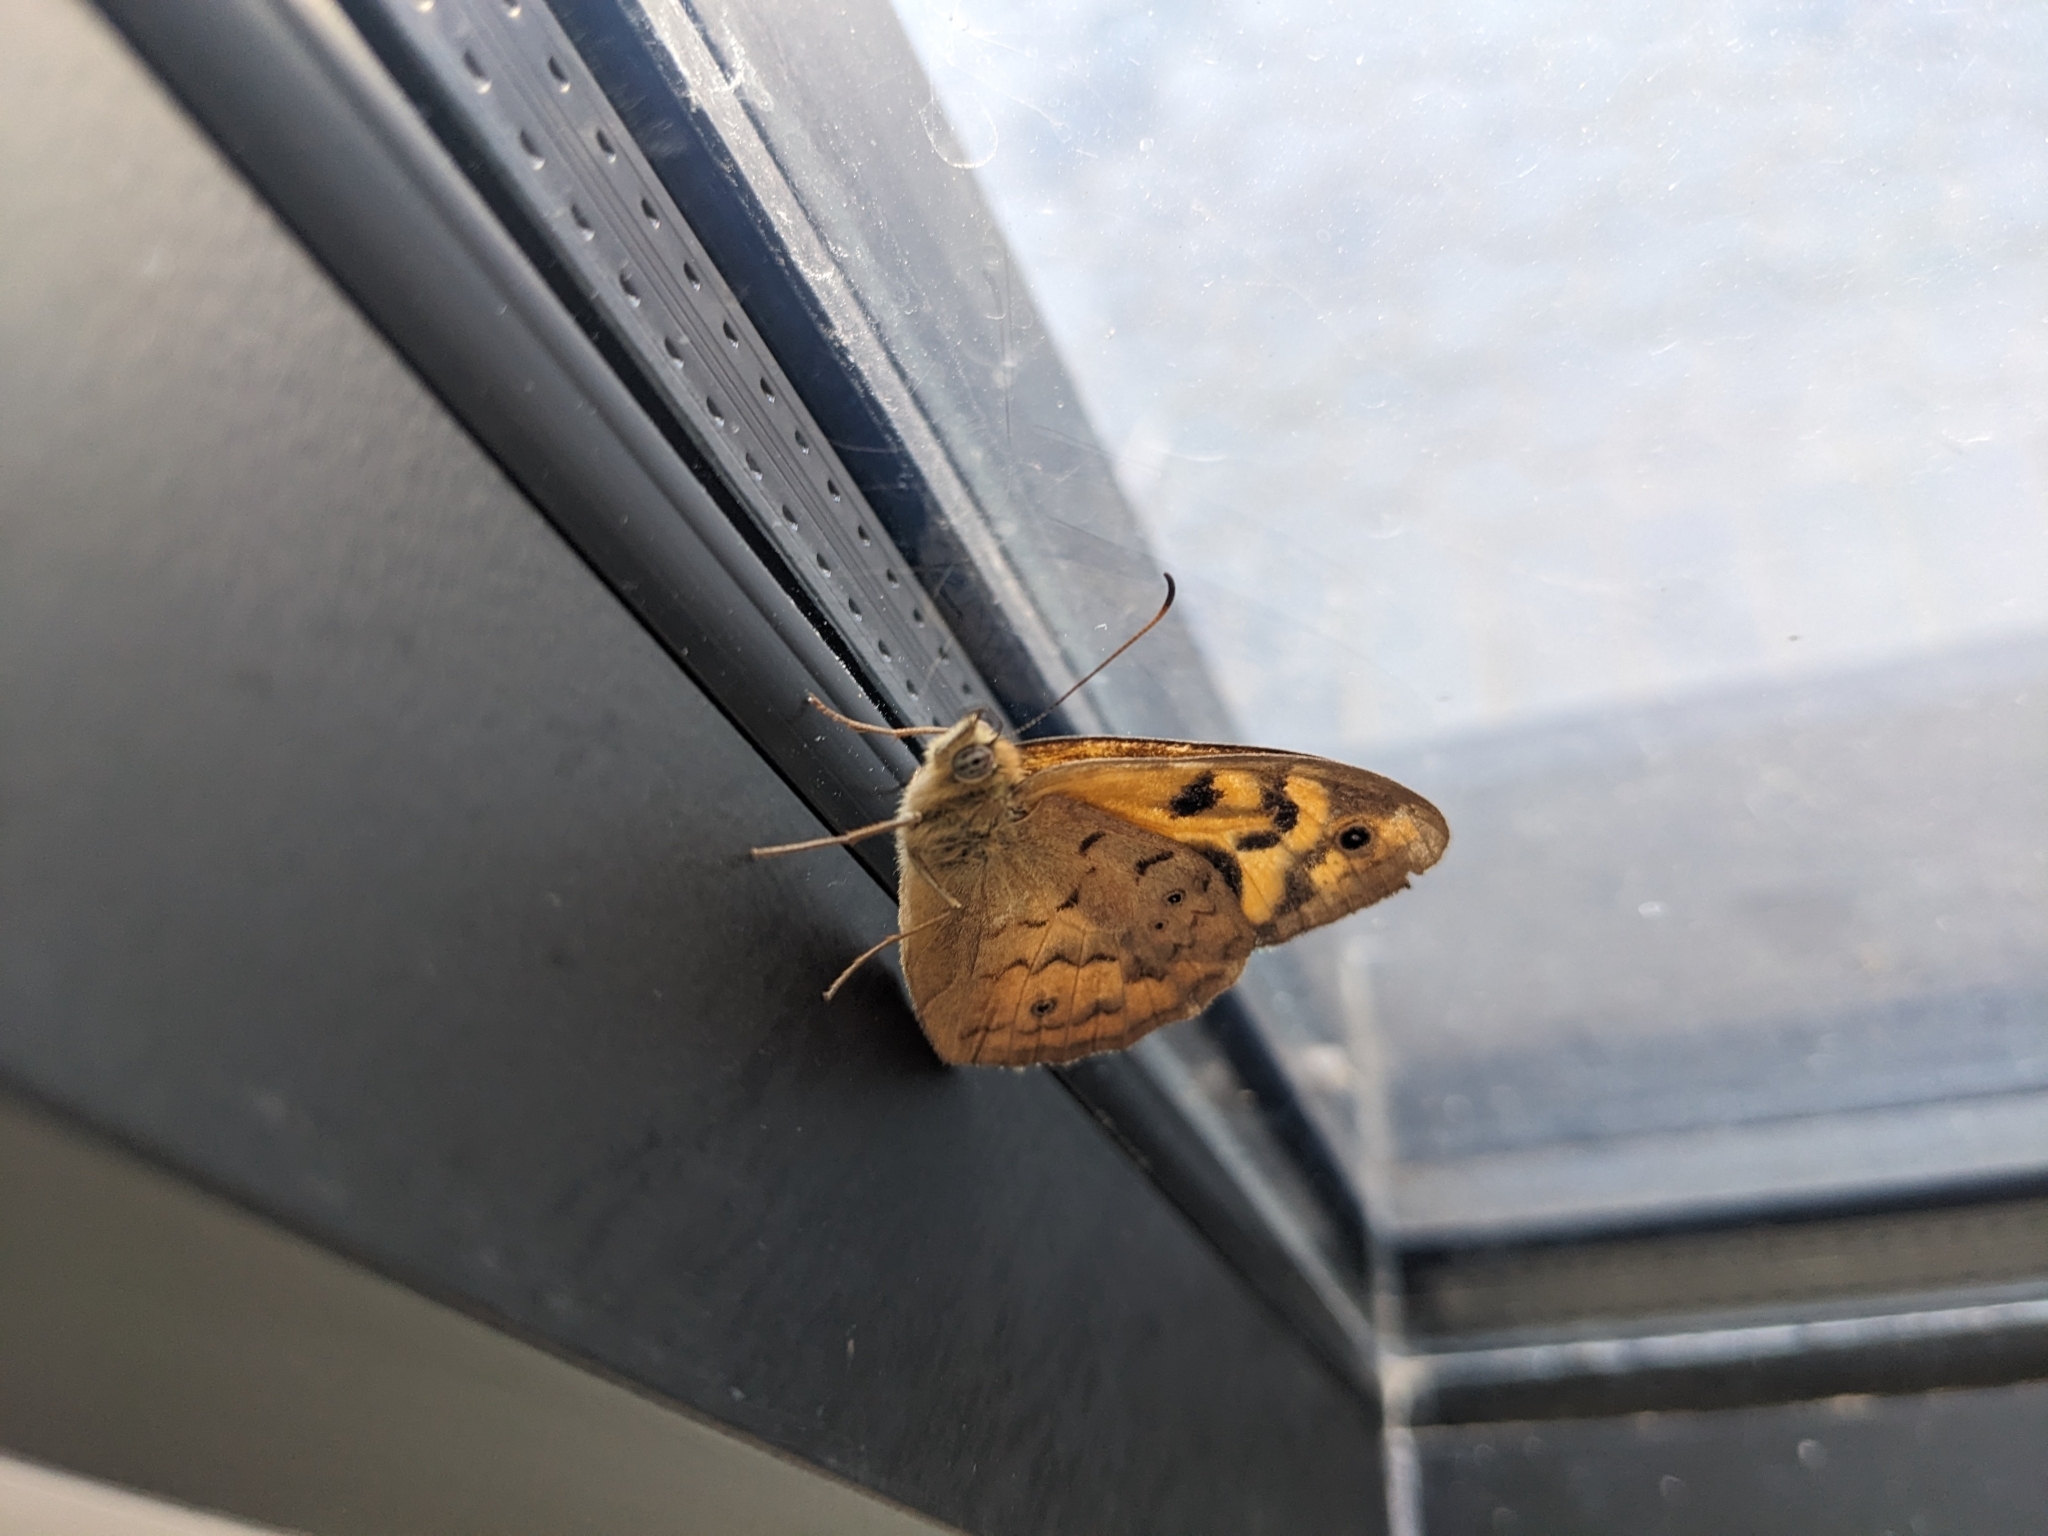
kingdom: Animalia
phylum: Arthropoda
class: Insecta
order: Lepidoptera
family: Nymphalidae
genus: Heteronympha
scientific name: Heteronympha merope
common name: Common brown
